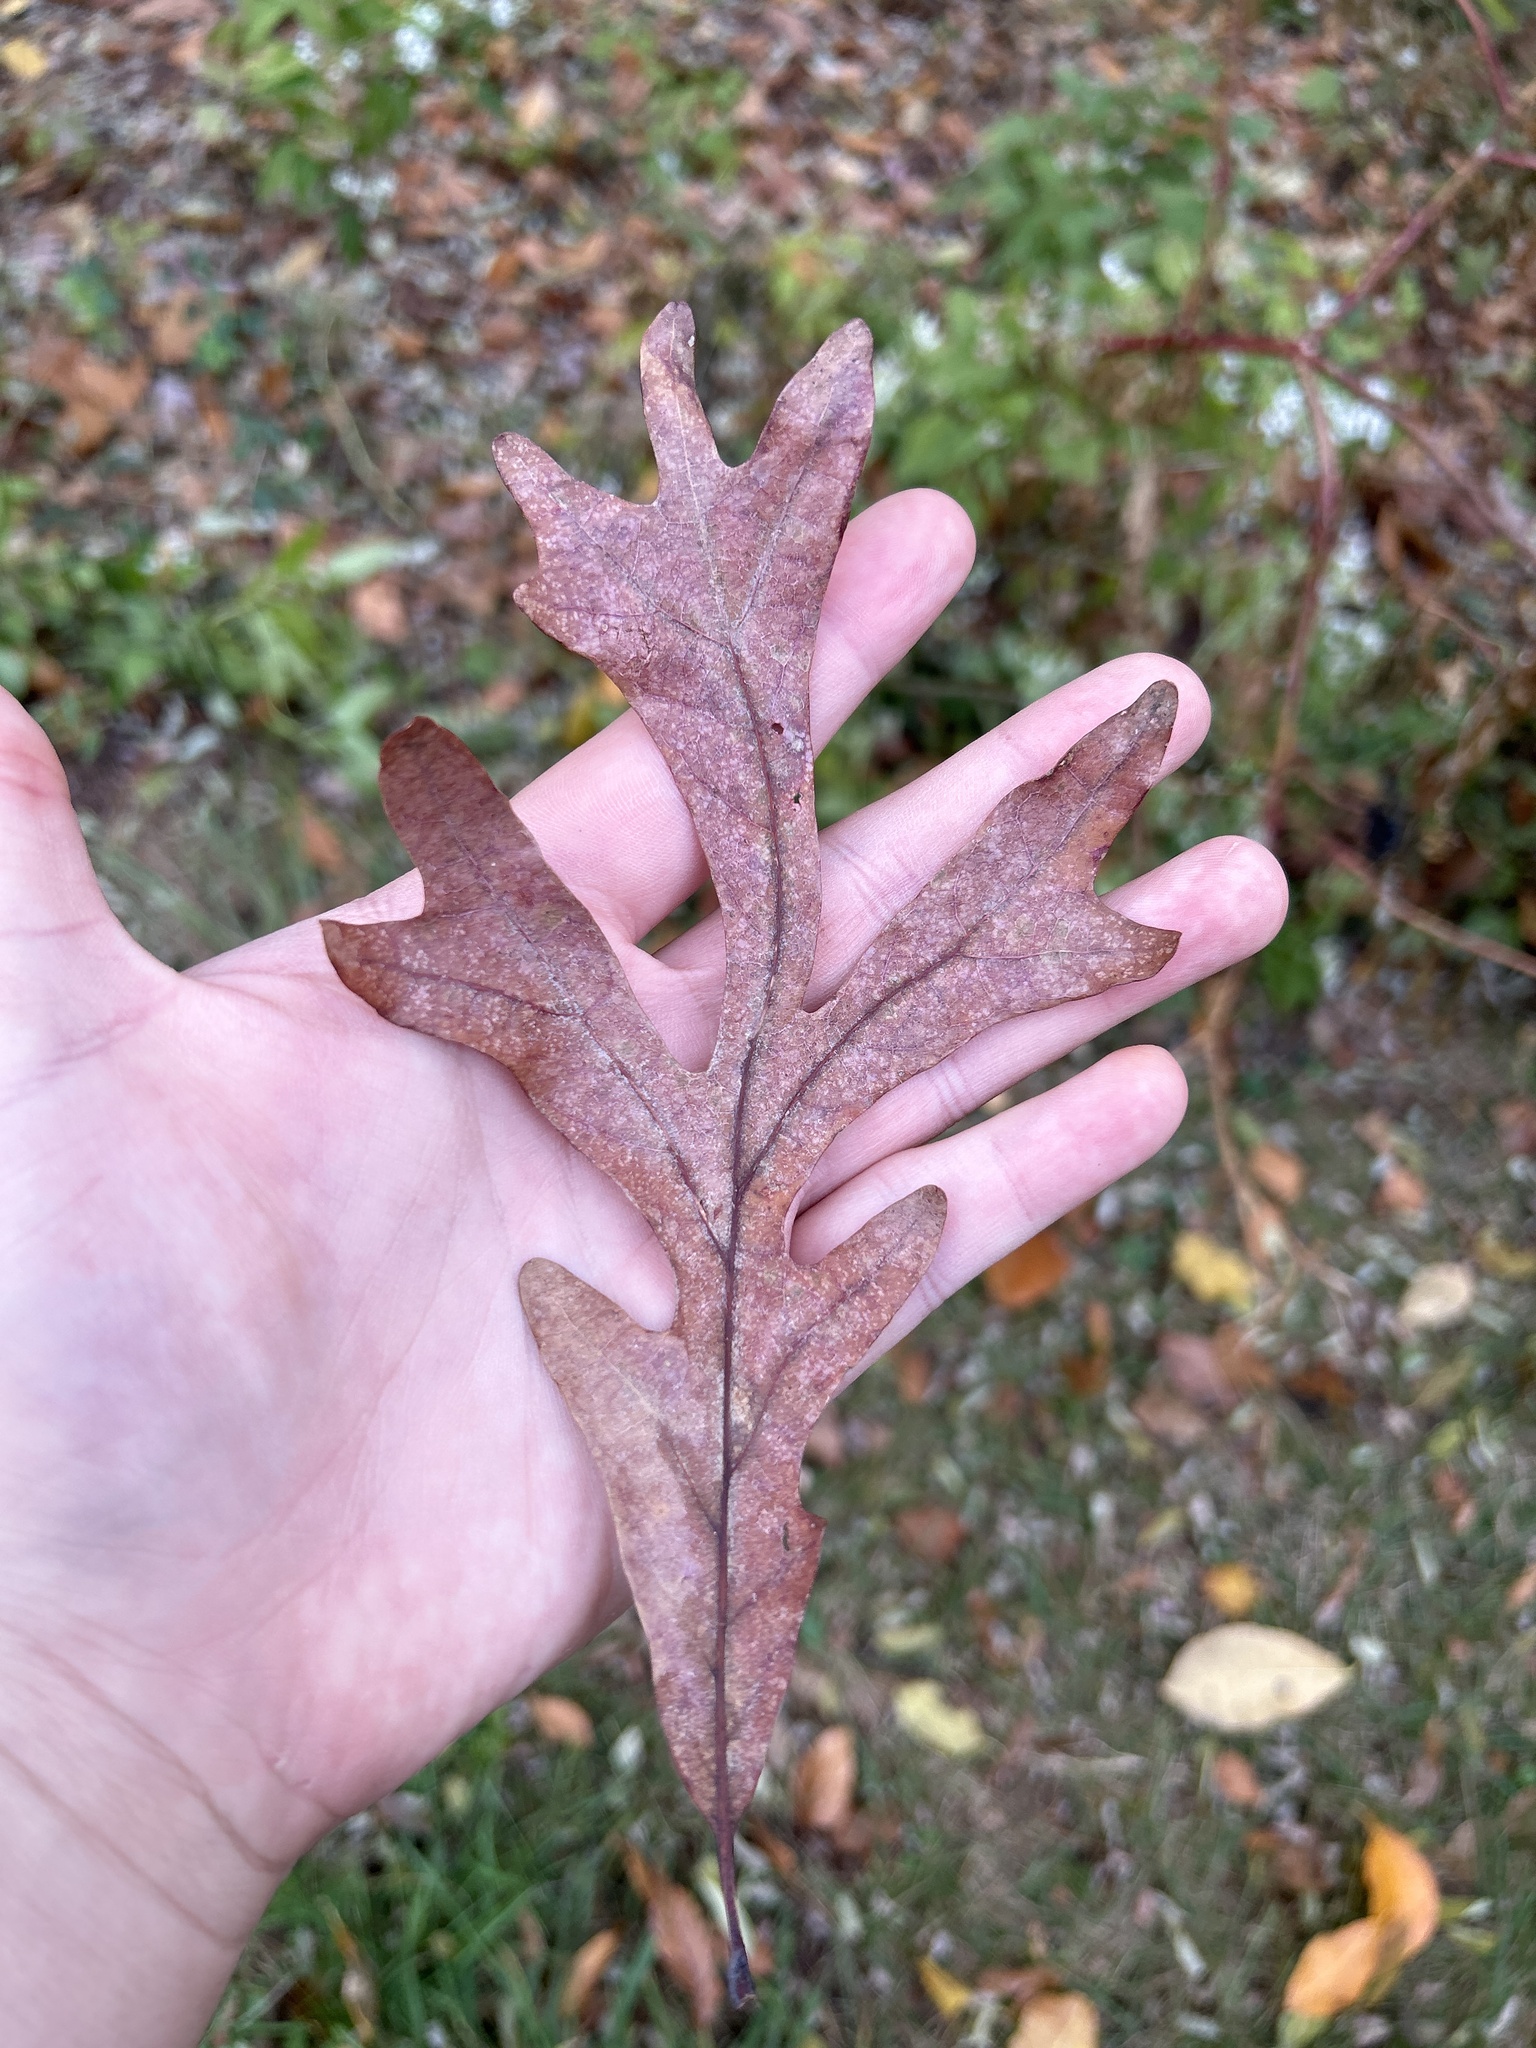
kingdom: Plantae
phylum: Tracheophyta
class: Magnoliopsida
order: Fagales
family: Fagaceae
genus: Quercus
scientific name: Quercus alba
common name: White oak
